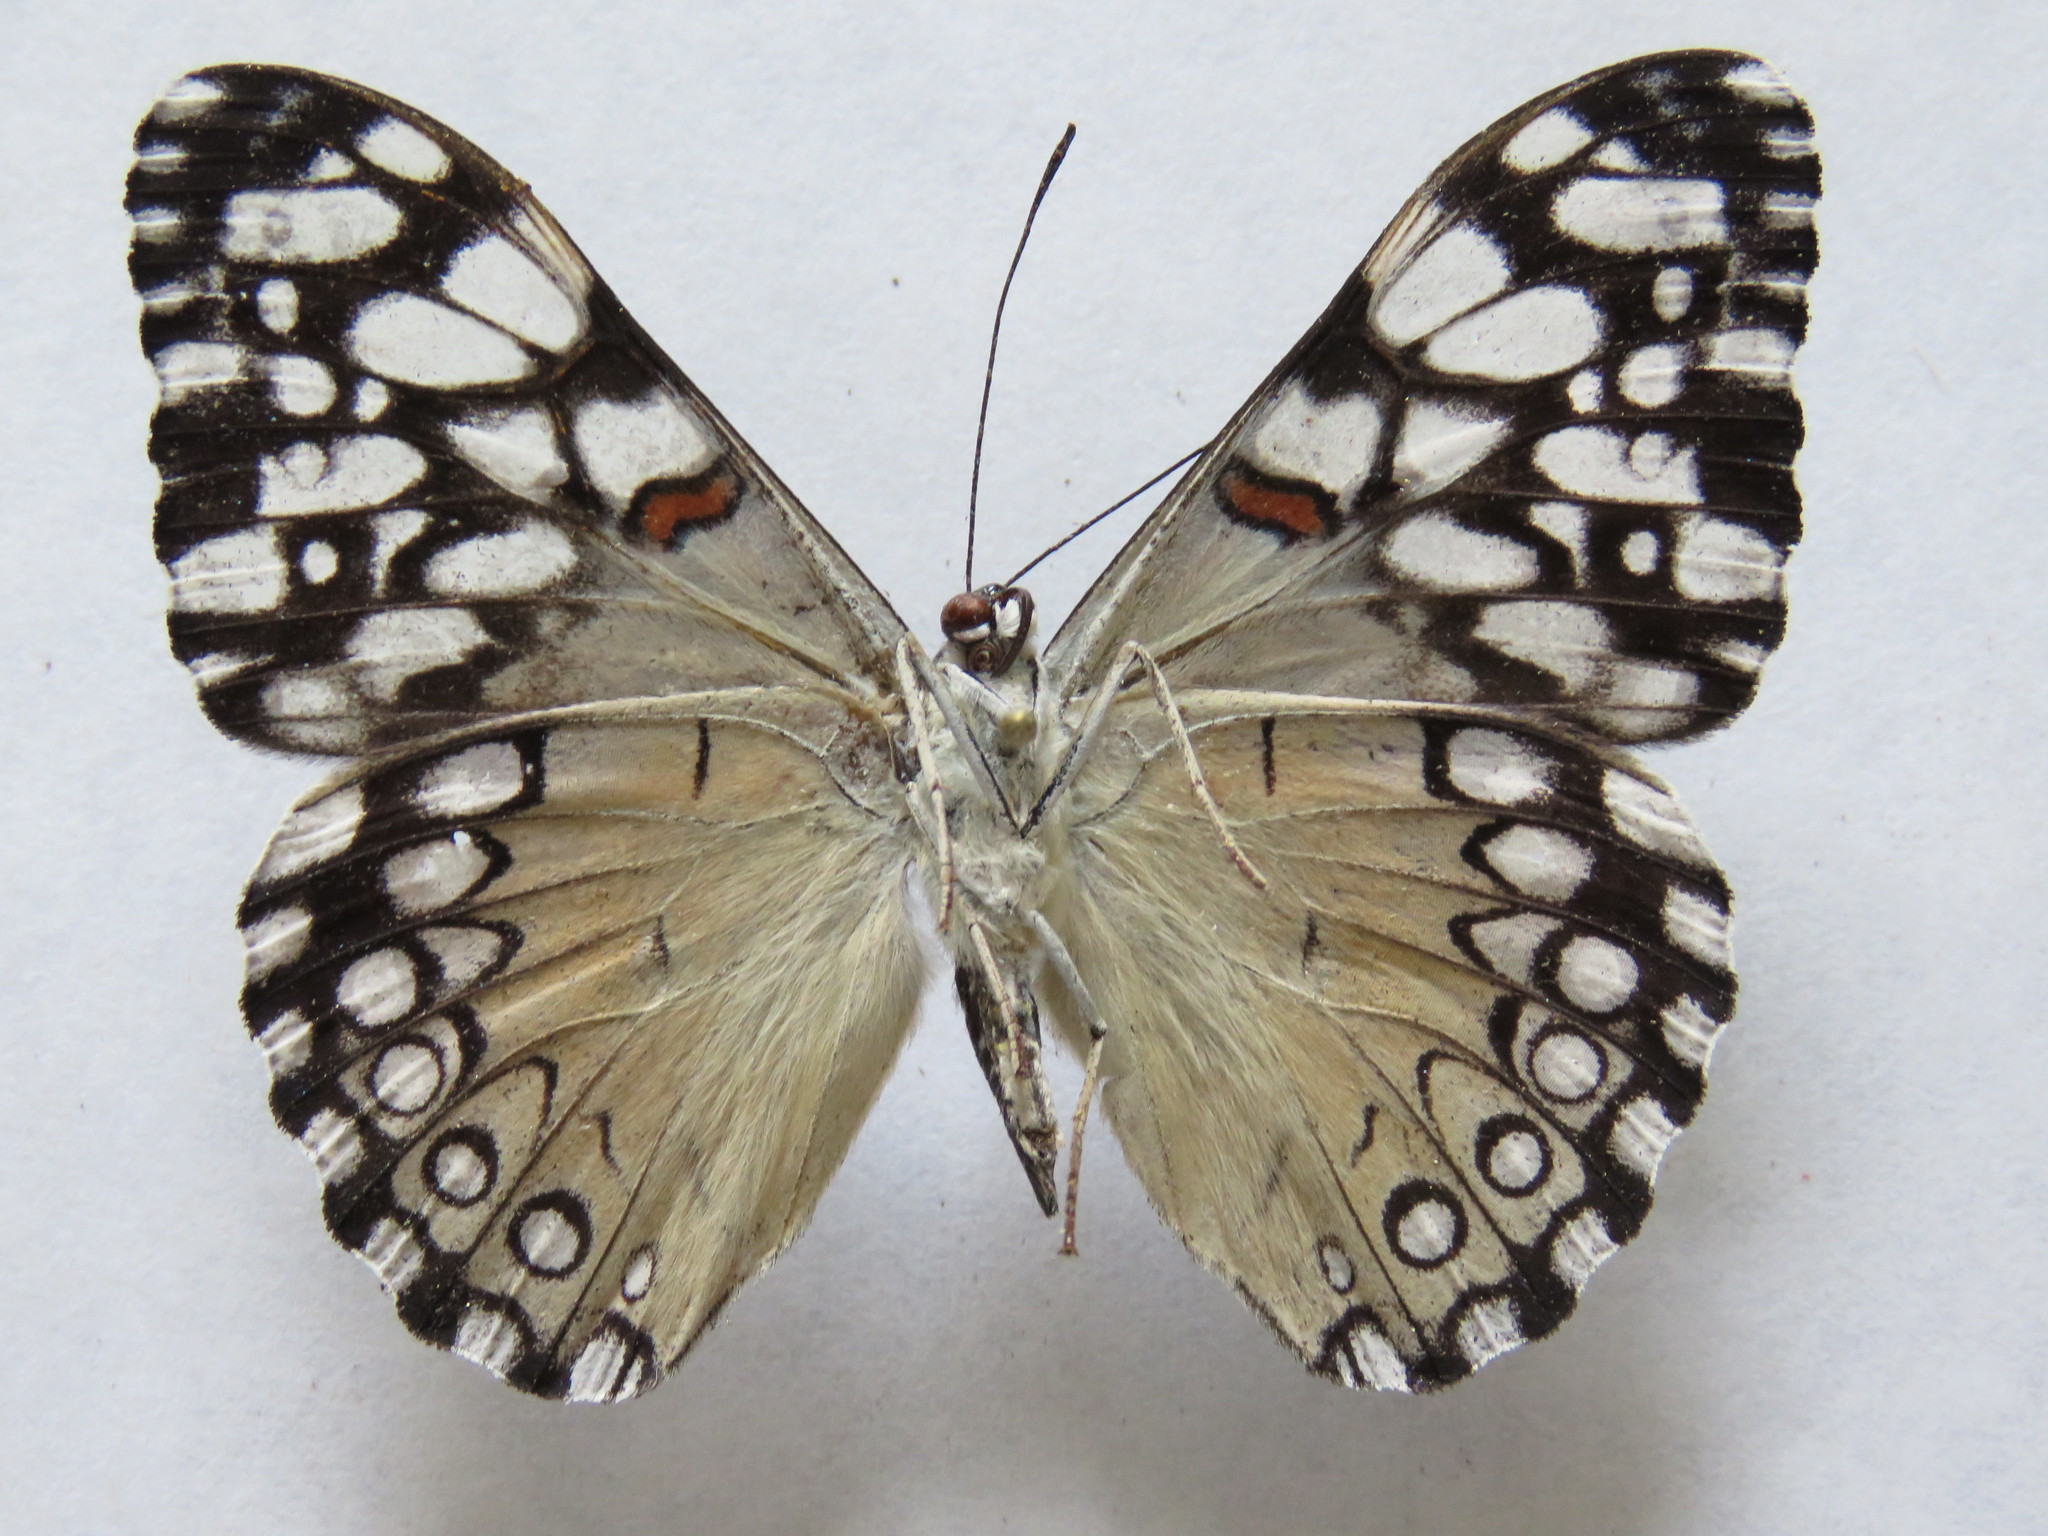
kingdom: Animalia
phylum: Arthropoda
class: Insecta
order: Lepidoptera
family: Nymphalidae
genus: Hamadryas
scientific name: Hamadryas feronia
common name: Variable cracker
